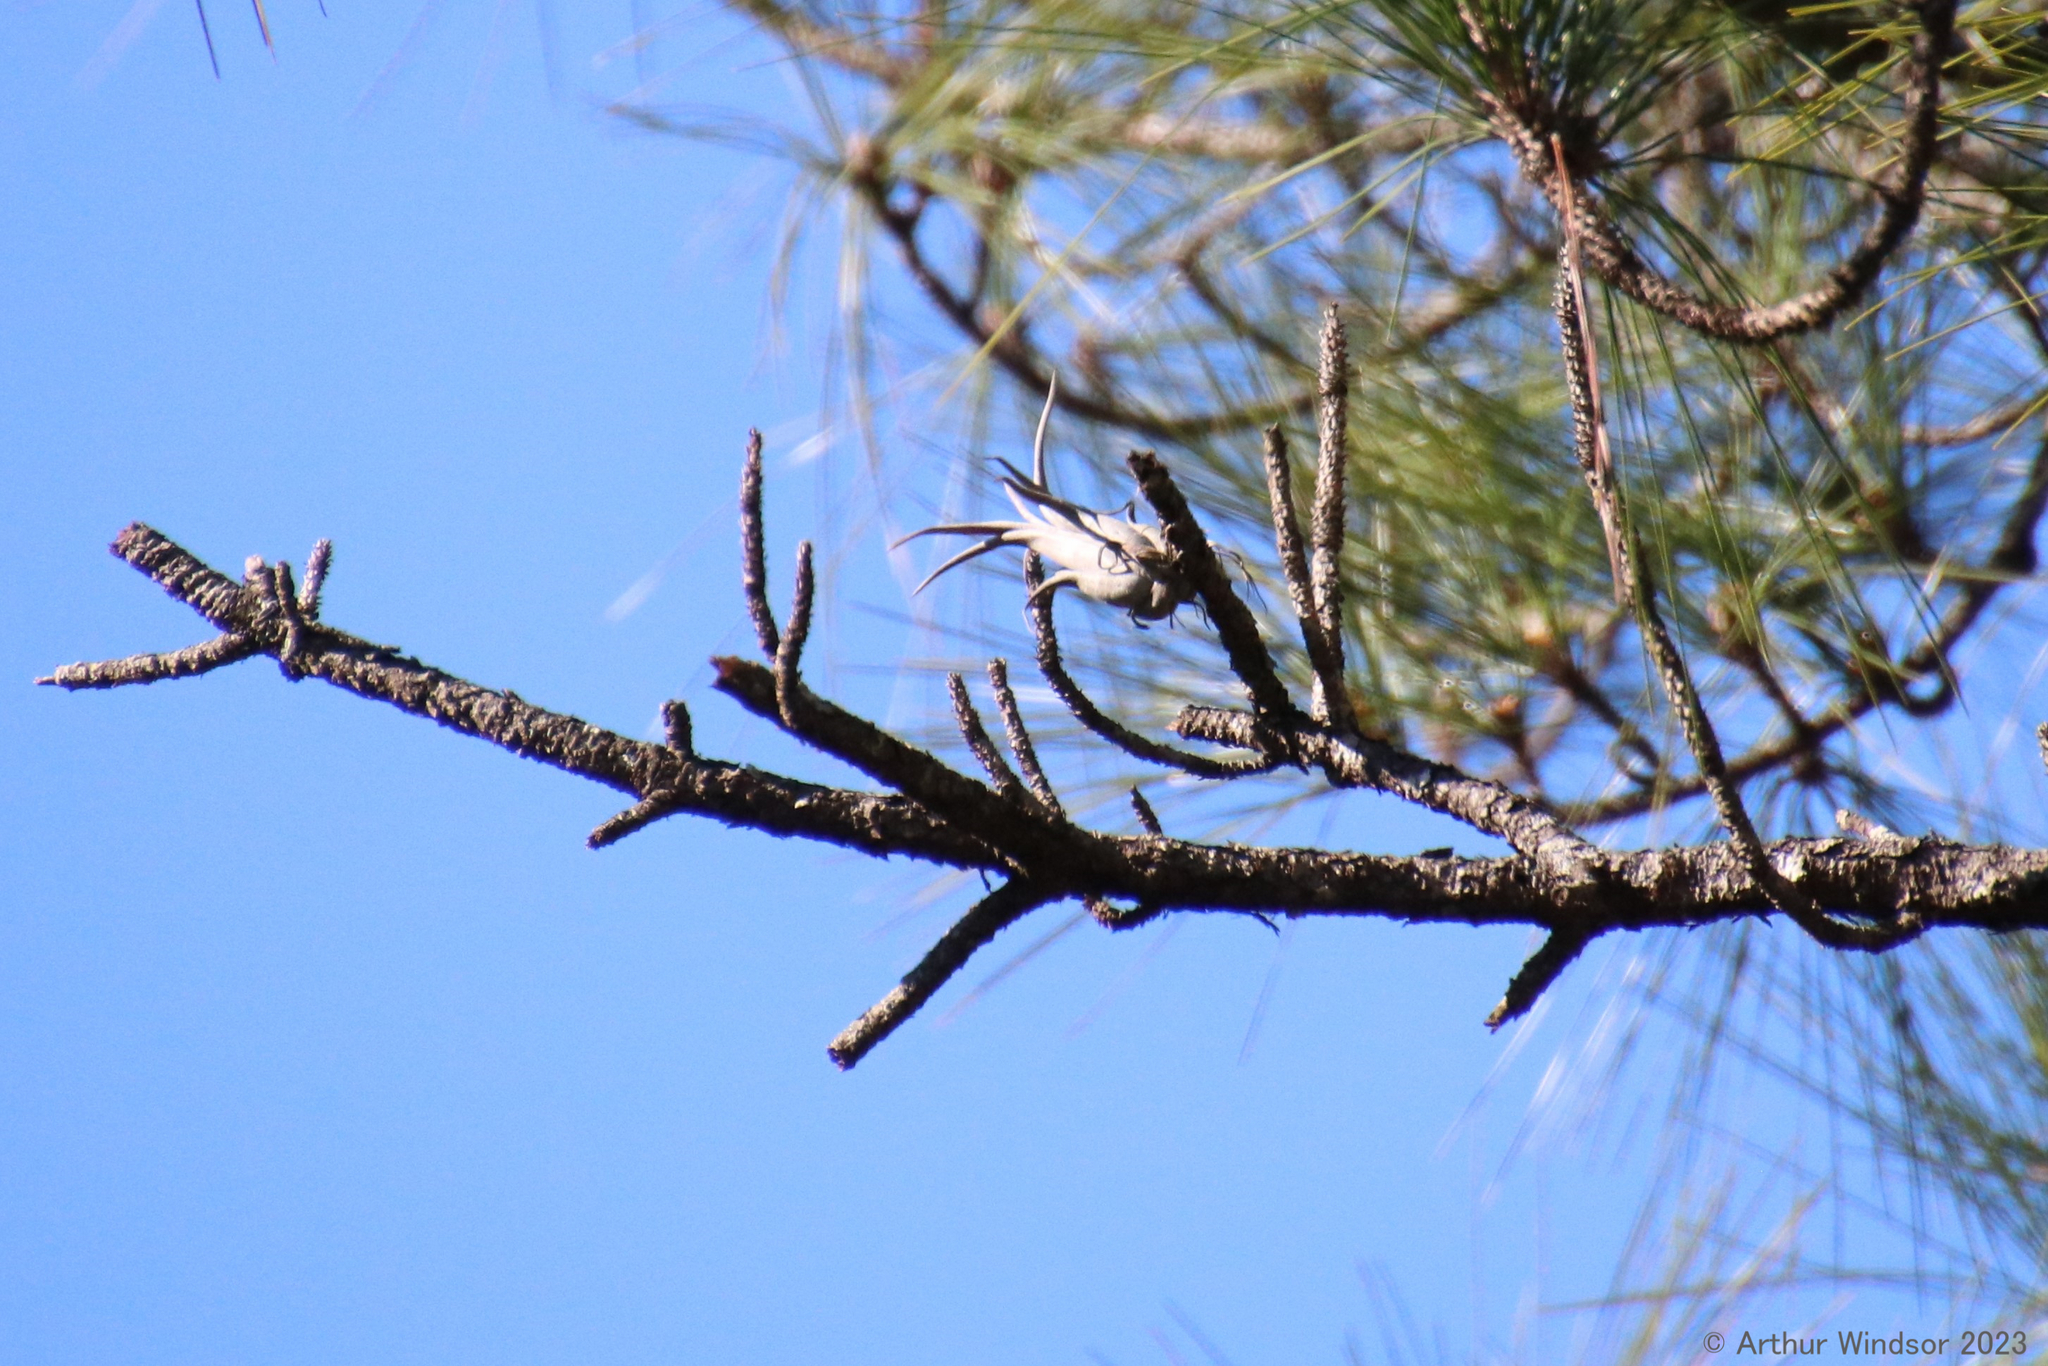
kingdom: Plantae
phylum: Tracheophyta
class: Liliopsida
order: Poales
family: Bromeliaceae
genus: Tillandsia
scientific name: Tillandsia paucifolia
